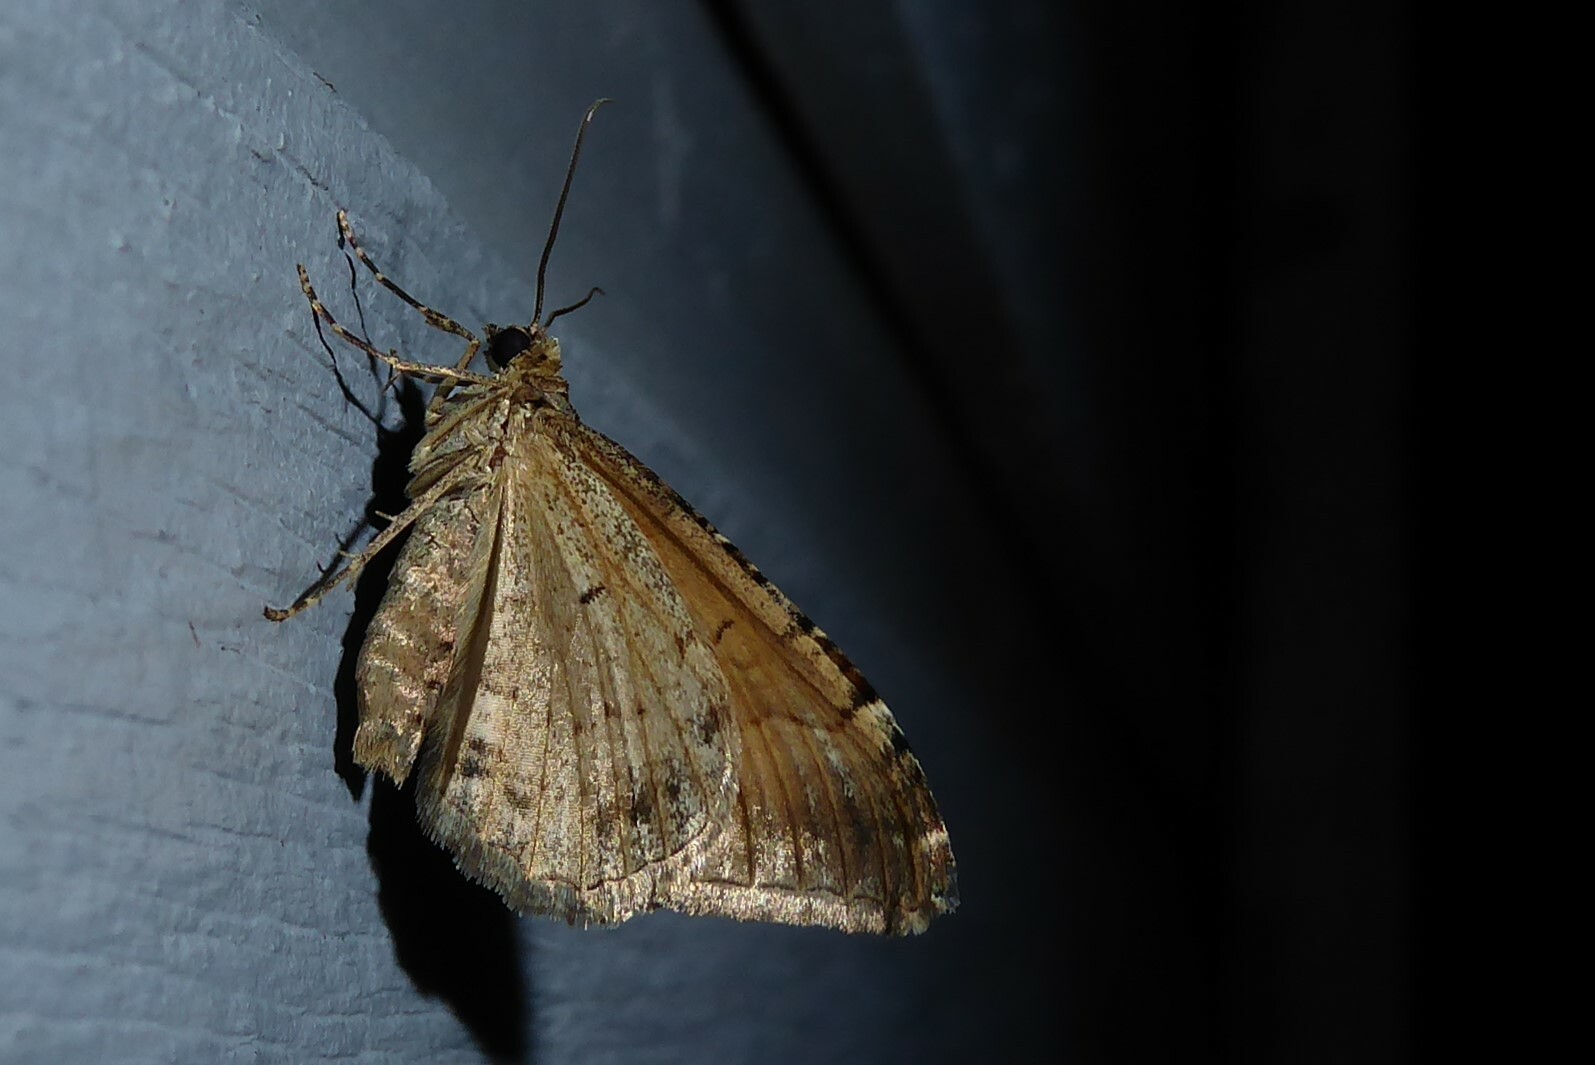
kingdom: Animalia
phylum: Arthropoda
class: Insecta
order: Lepidoptera
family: Geometridae
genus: Hydriomena
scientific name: Hydriomena deltoidata
